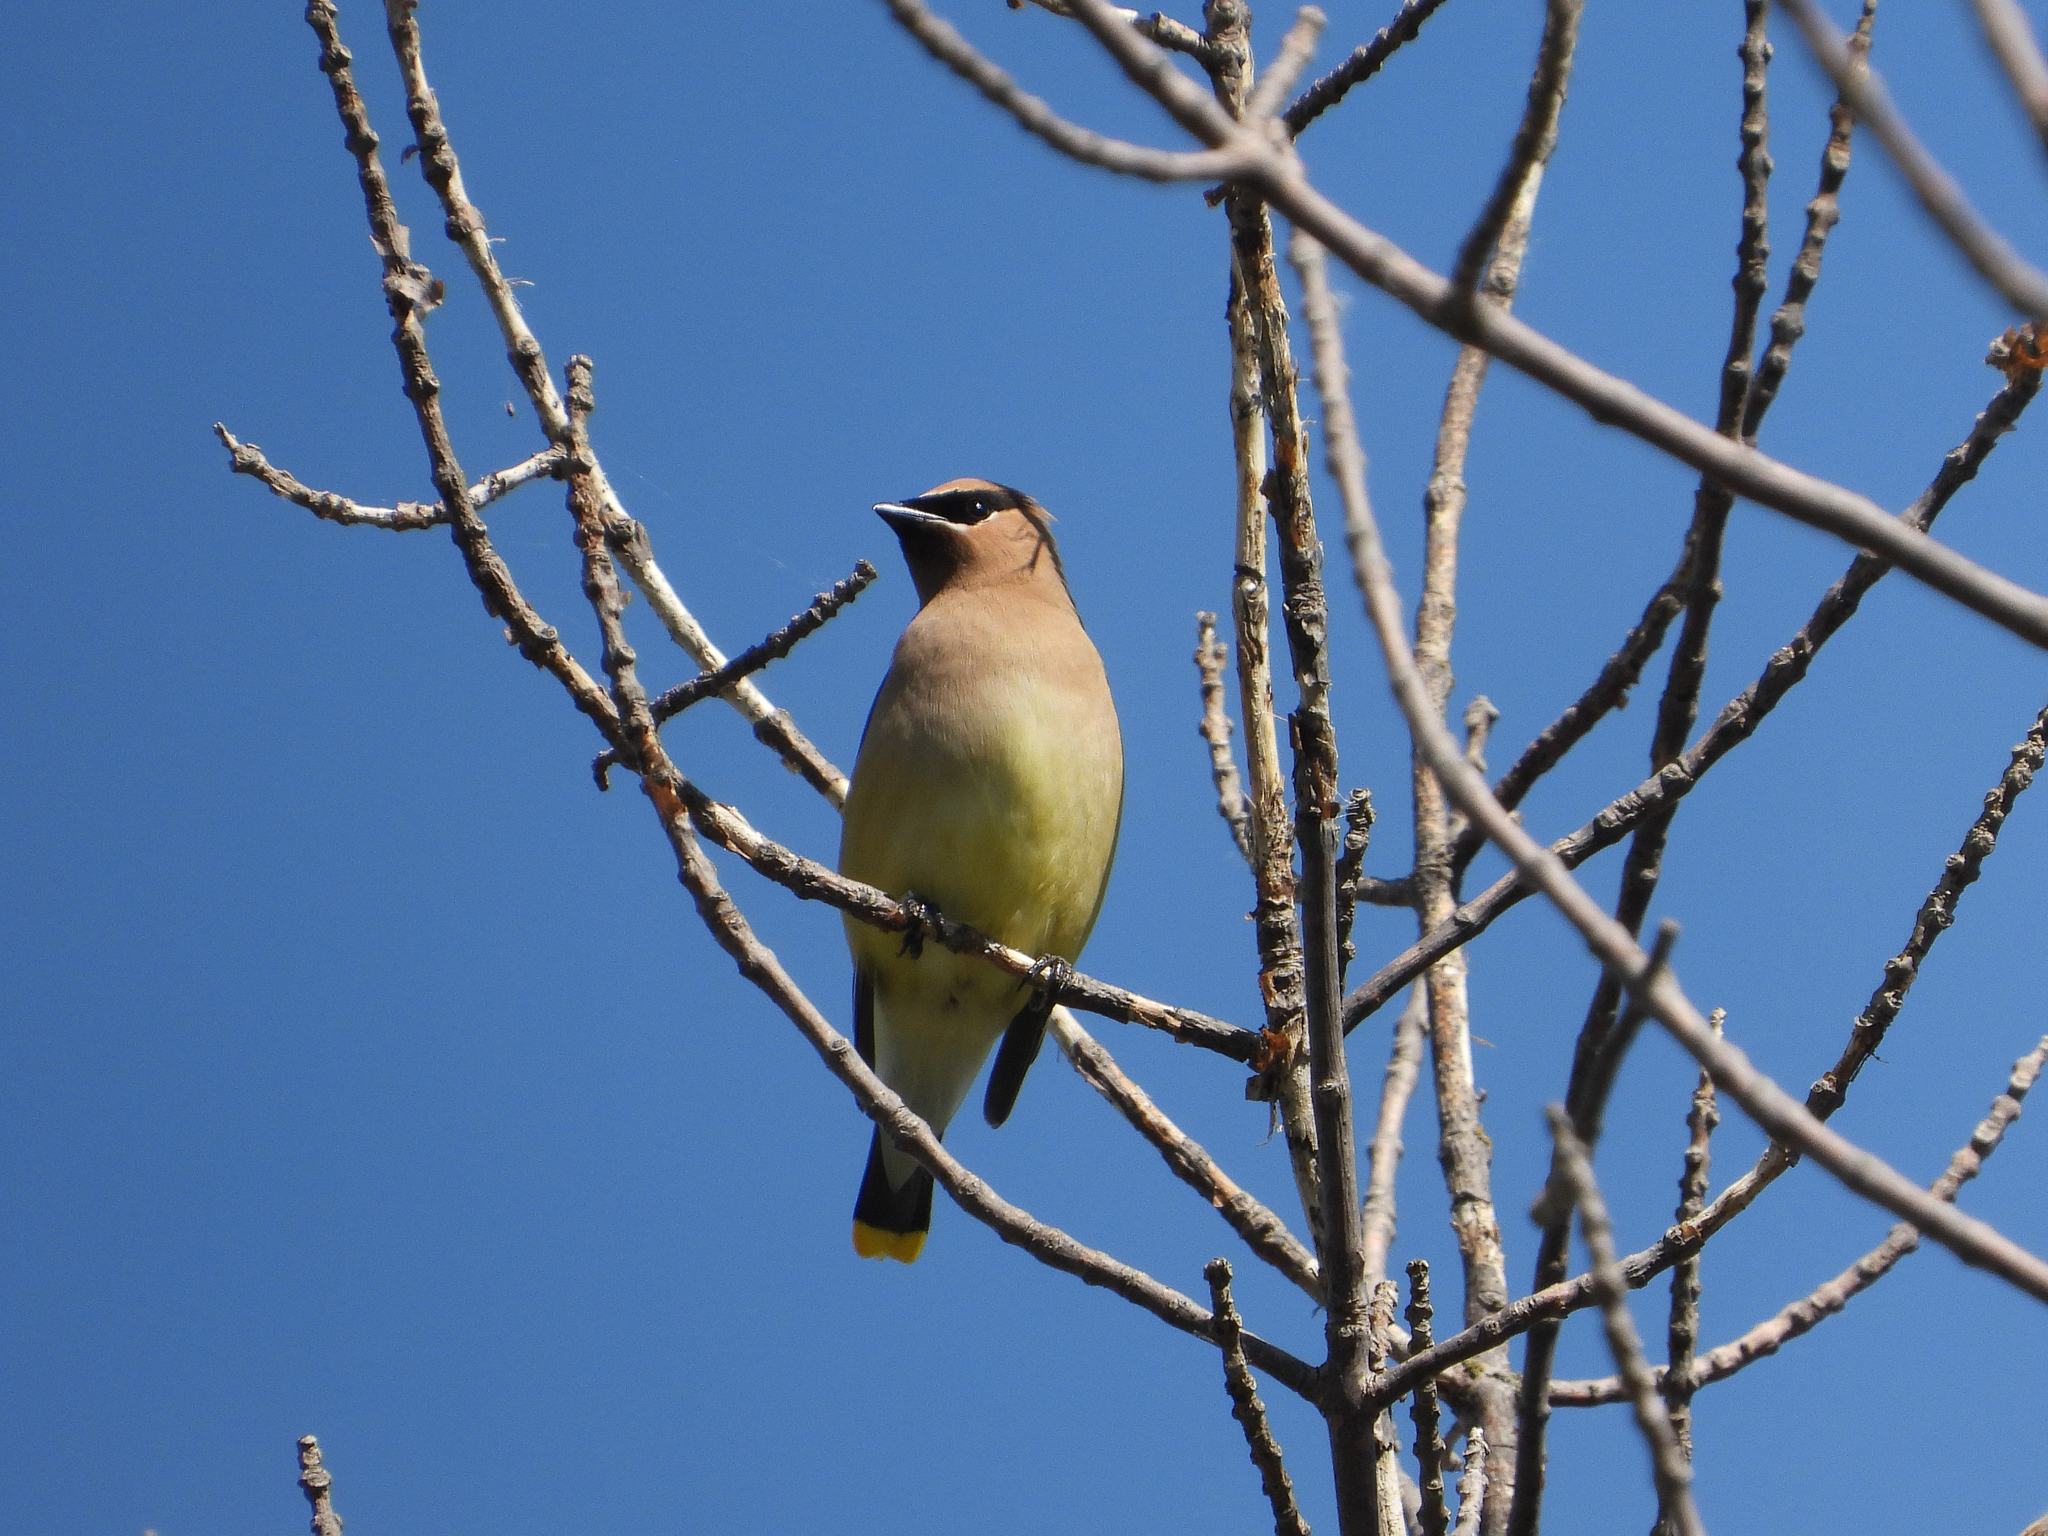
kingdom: Animalia
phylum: Chordata
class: Aves
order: Passeriformes
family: Bombycillidae
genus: Bombycilla
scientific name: Bombycilla cedrorum
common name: Cedar waxwing
